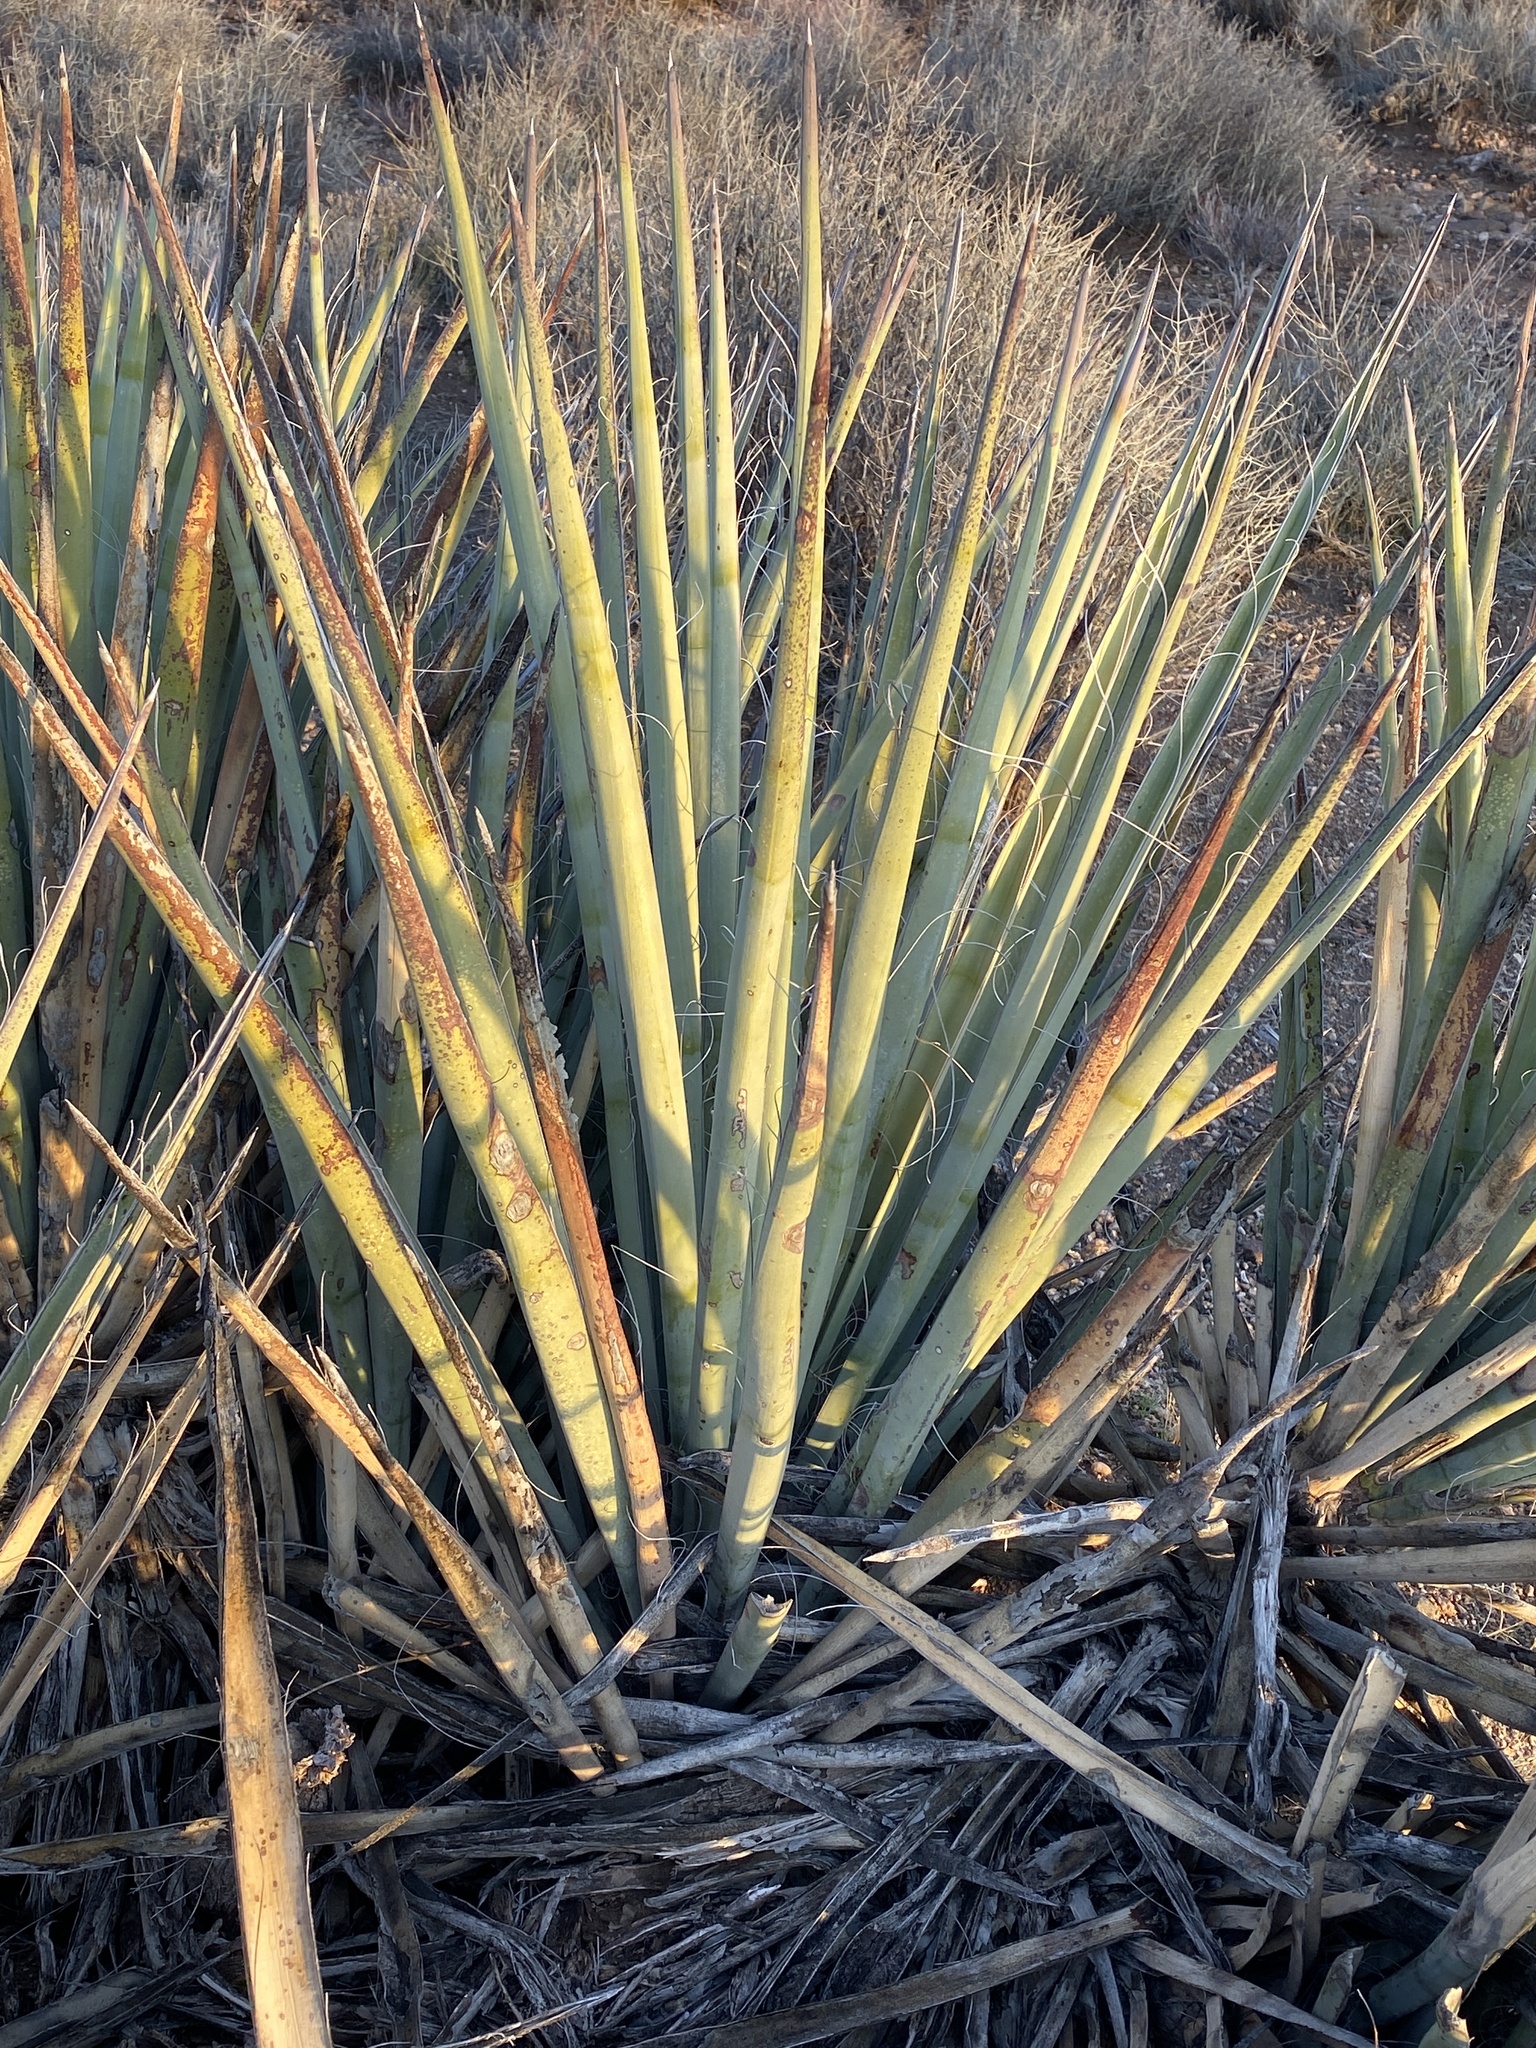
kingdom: Plantae
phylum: Tracheophyta
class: Liliopsida
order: Asparagales
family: Asparagaceae
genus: Yucca
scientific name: Yucca baccata
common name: Banana yucca
